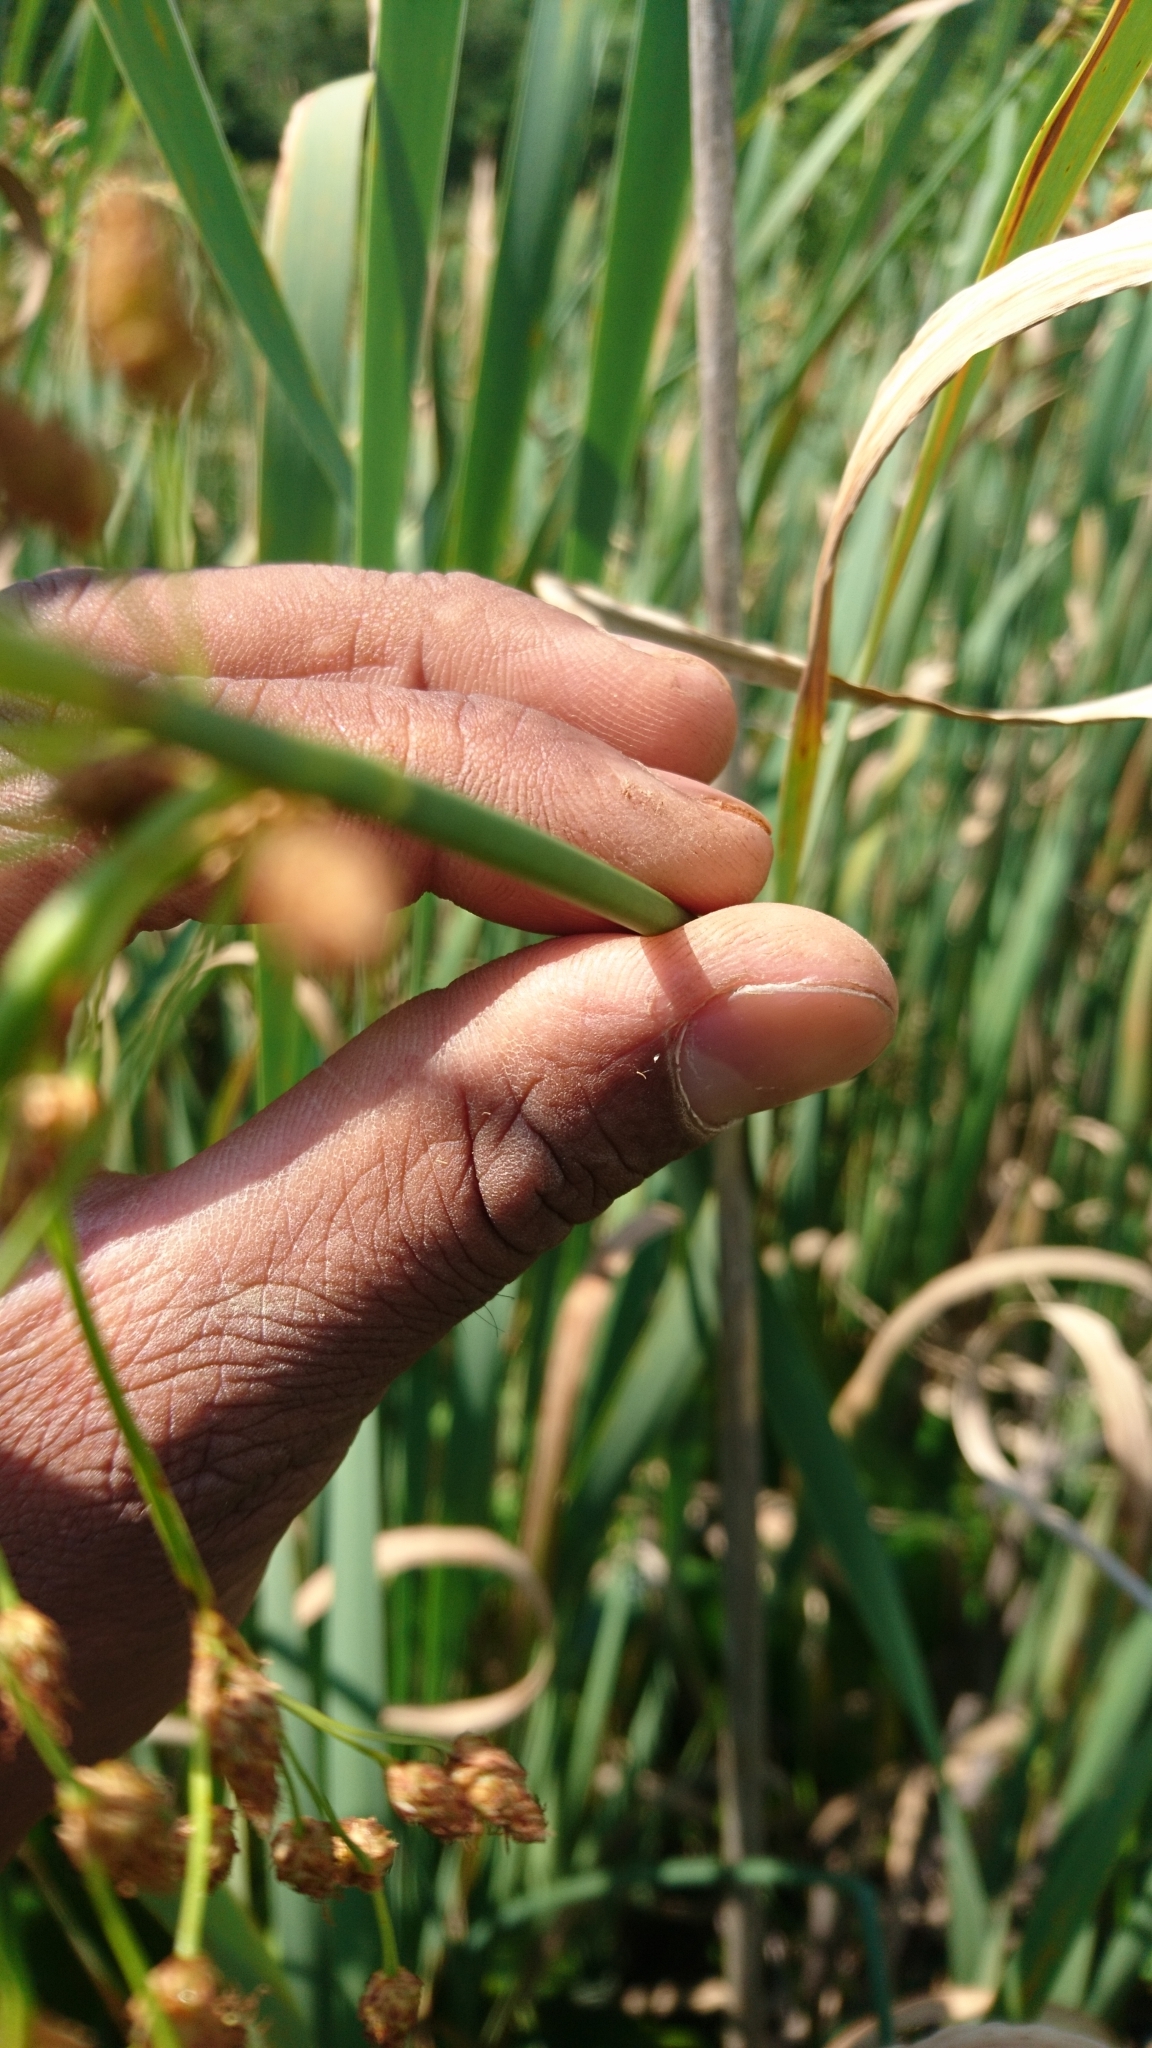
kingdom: Plantae
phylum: Tracheophyta
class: Liliopsida
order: Poales
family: Cyperaceae
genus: Schoenoplectus
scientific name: Schoenoplectus tabernaemontani
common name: Grey club-rush
